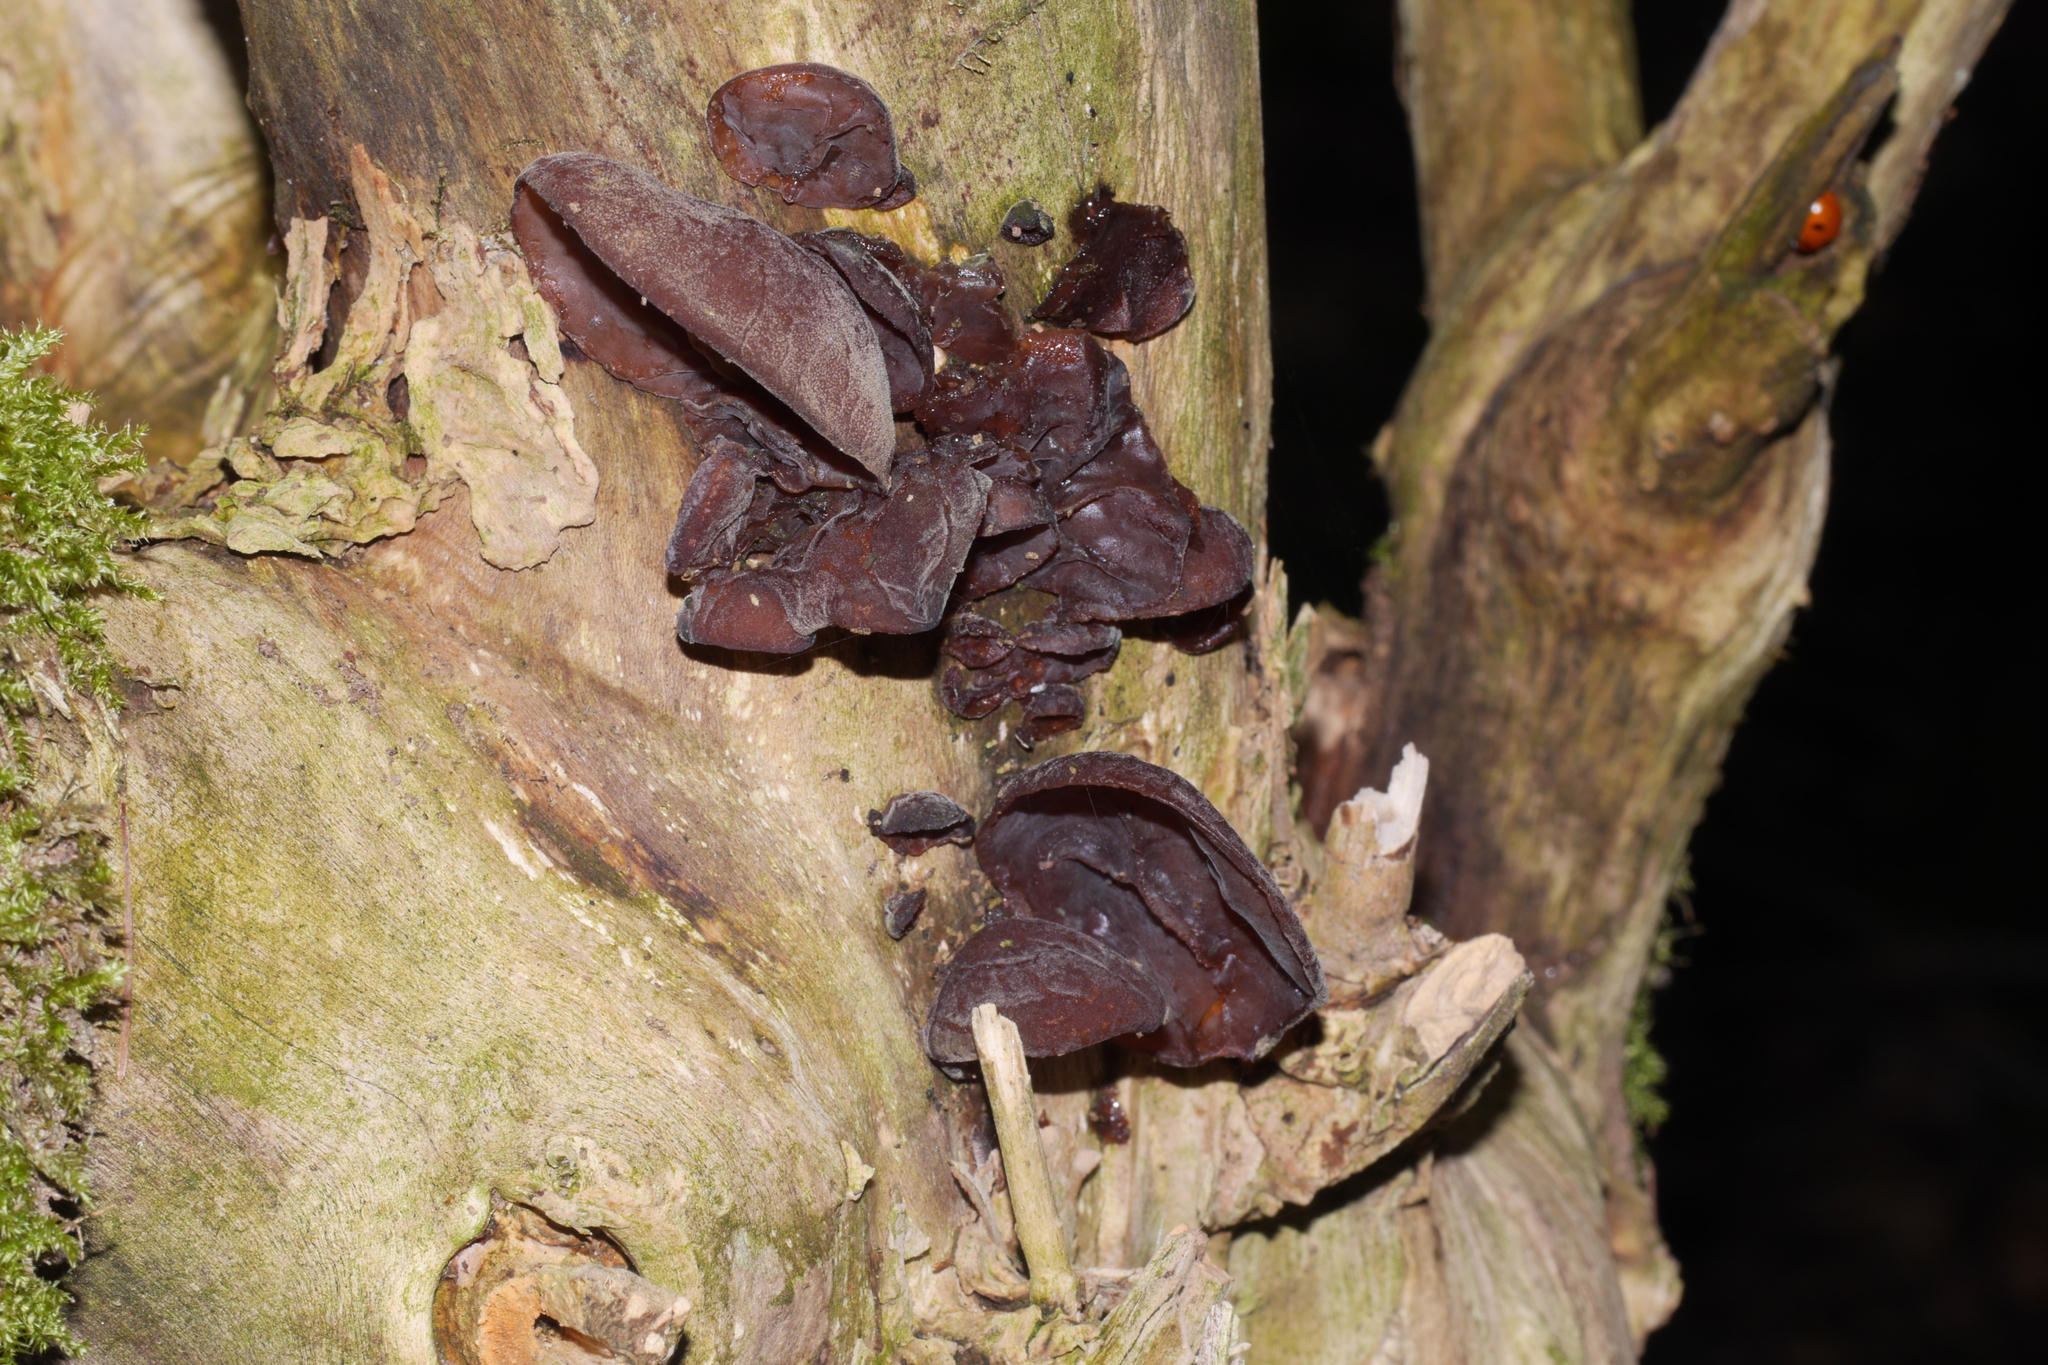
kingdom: Fungi
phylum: Basidiomycota
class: Agaricomycetes
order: Auriculariales
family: Auriculariaceae
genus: Auricularia
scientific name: Auricularia auricula-judae
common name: Jelly ear
